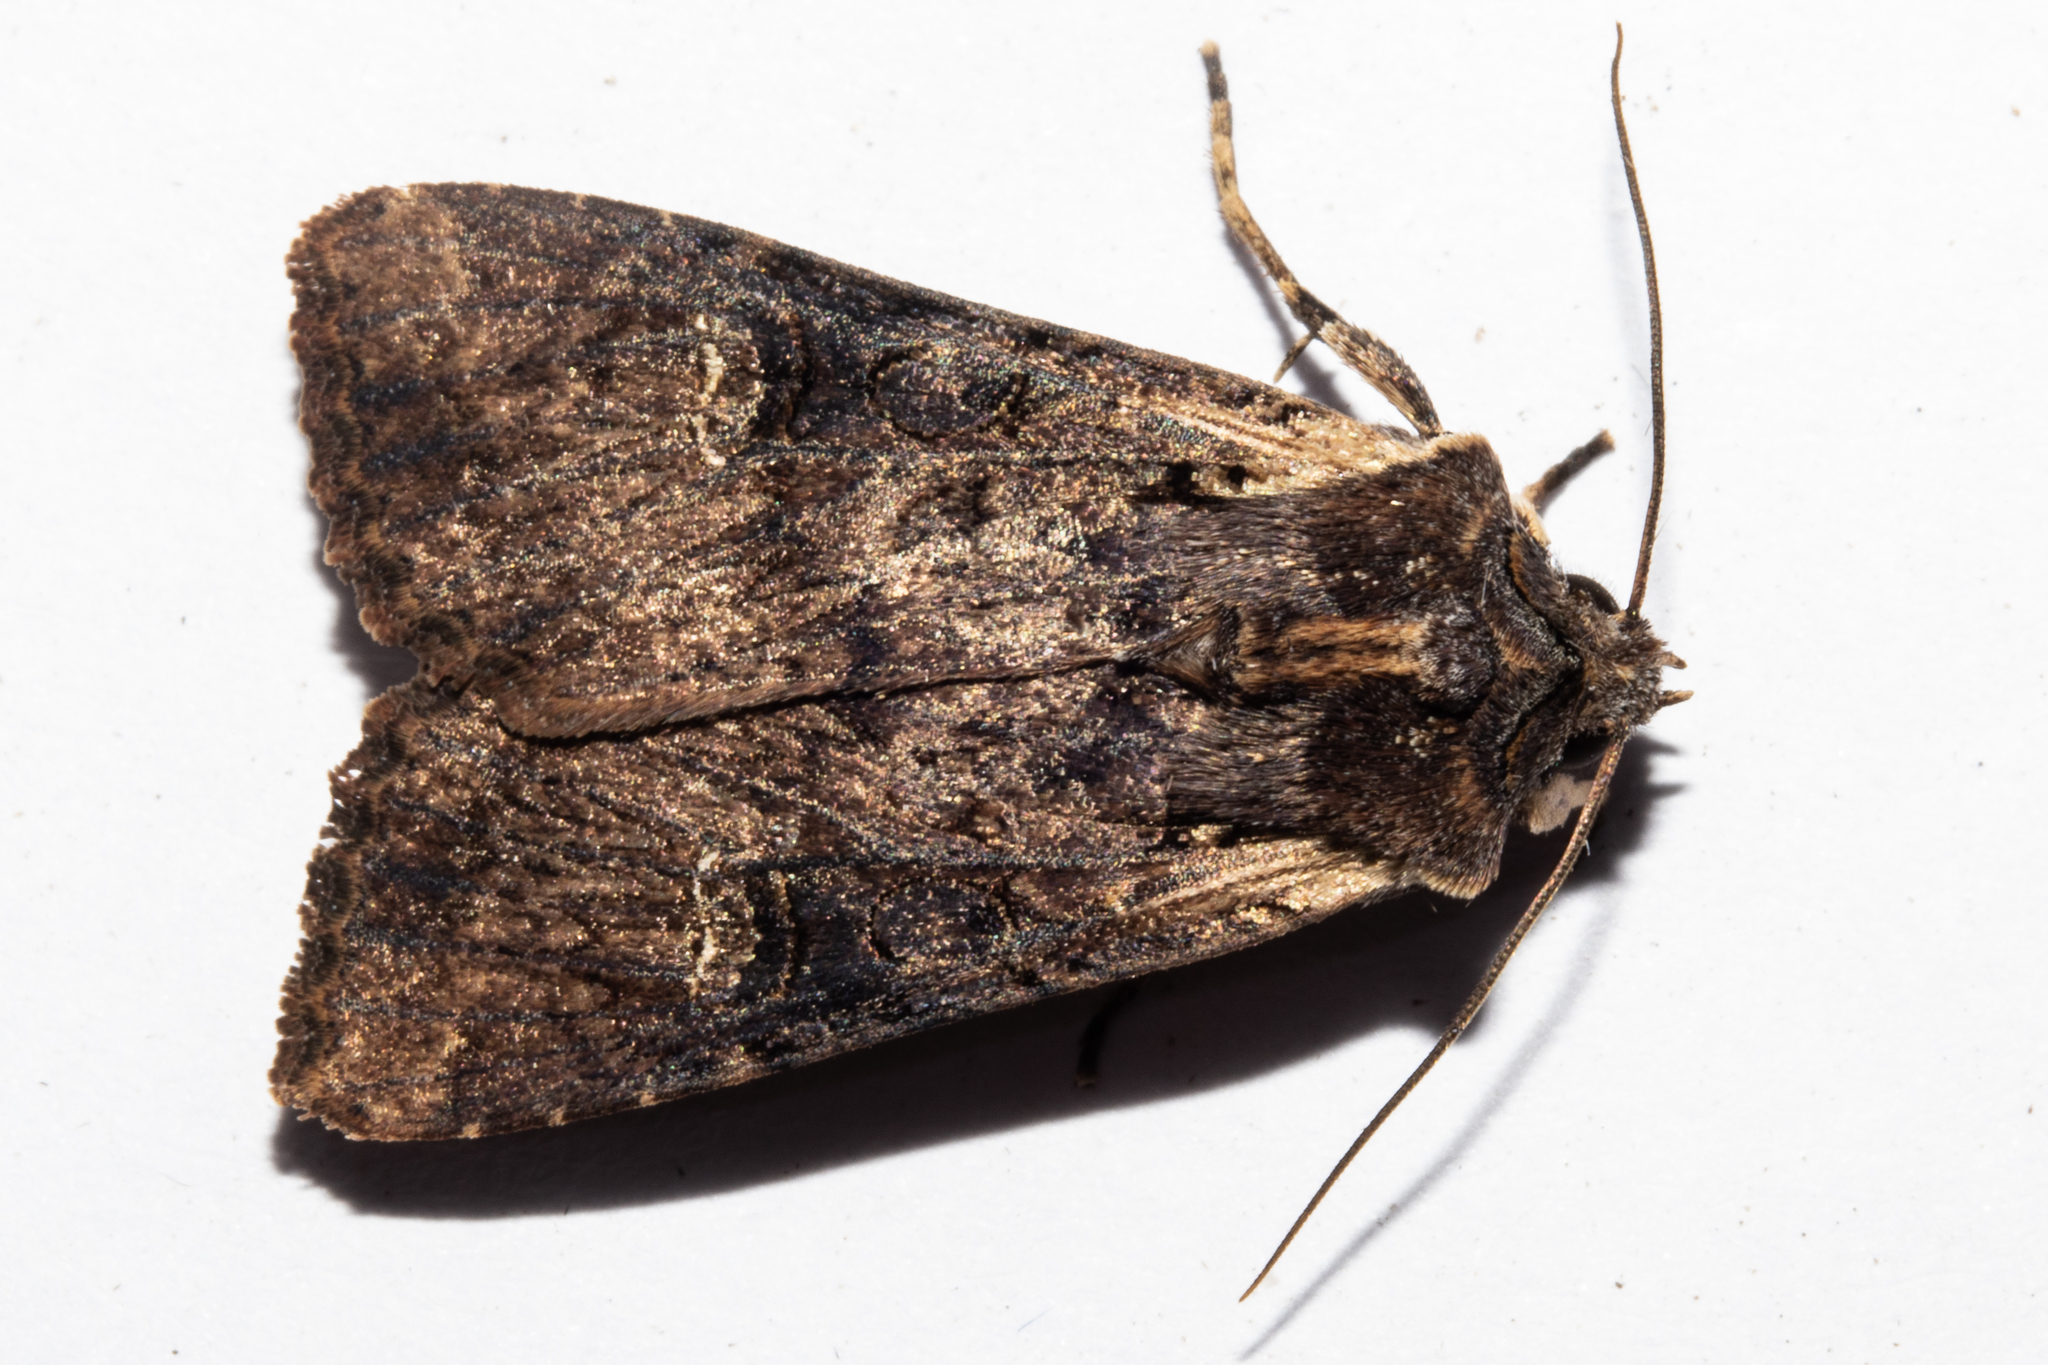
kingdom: Animalia
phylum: Arthropoda
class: Insecta
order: Lepidoptera
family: Noctuidae
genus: Ichneutica
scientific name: Ichneutica omoplaca
